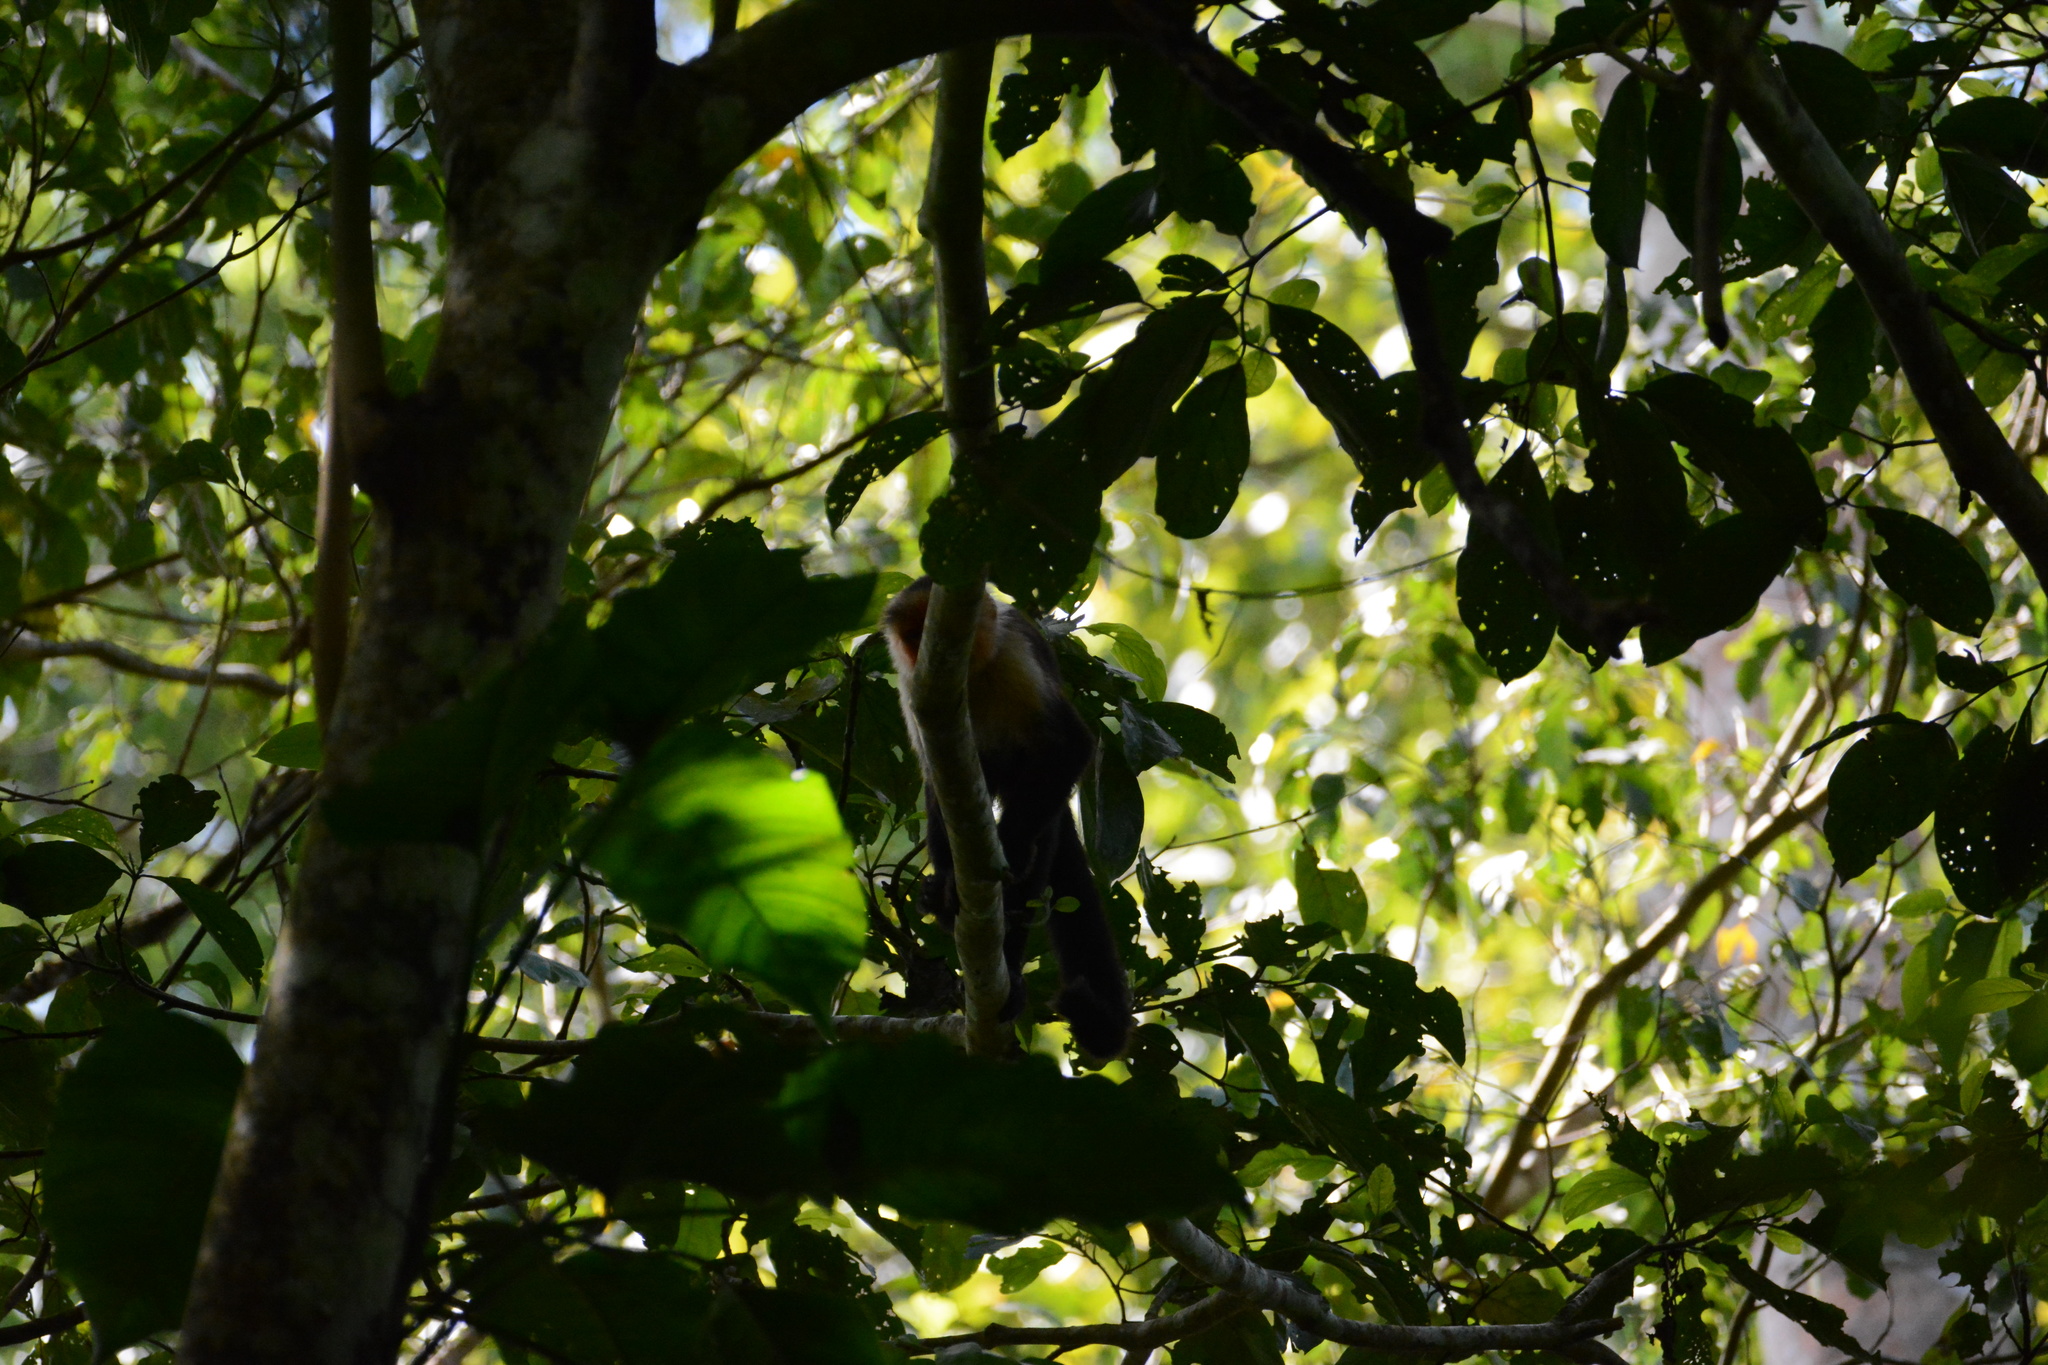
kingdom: Animalia
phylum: Chordata
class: Mammalia
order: Primates
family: Cebidae
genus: Cebus
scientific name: Cebus imitator
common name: Panamanian white-faced capuchin
